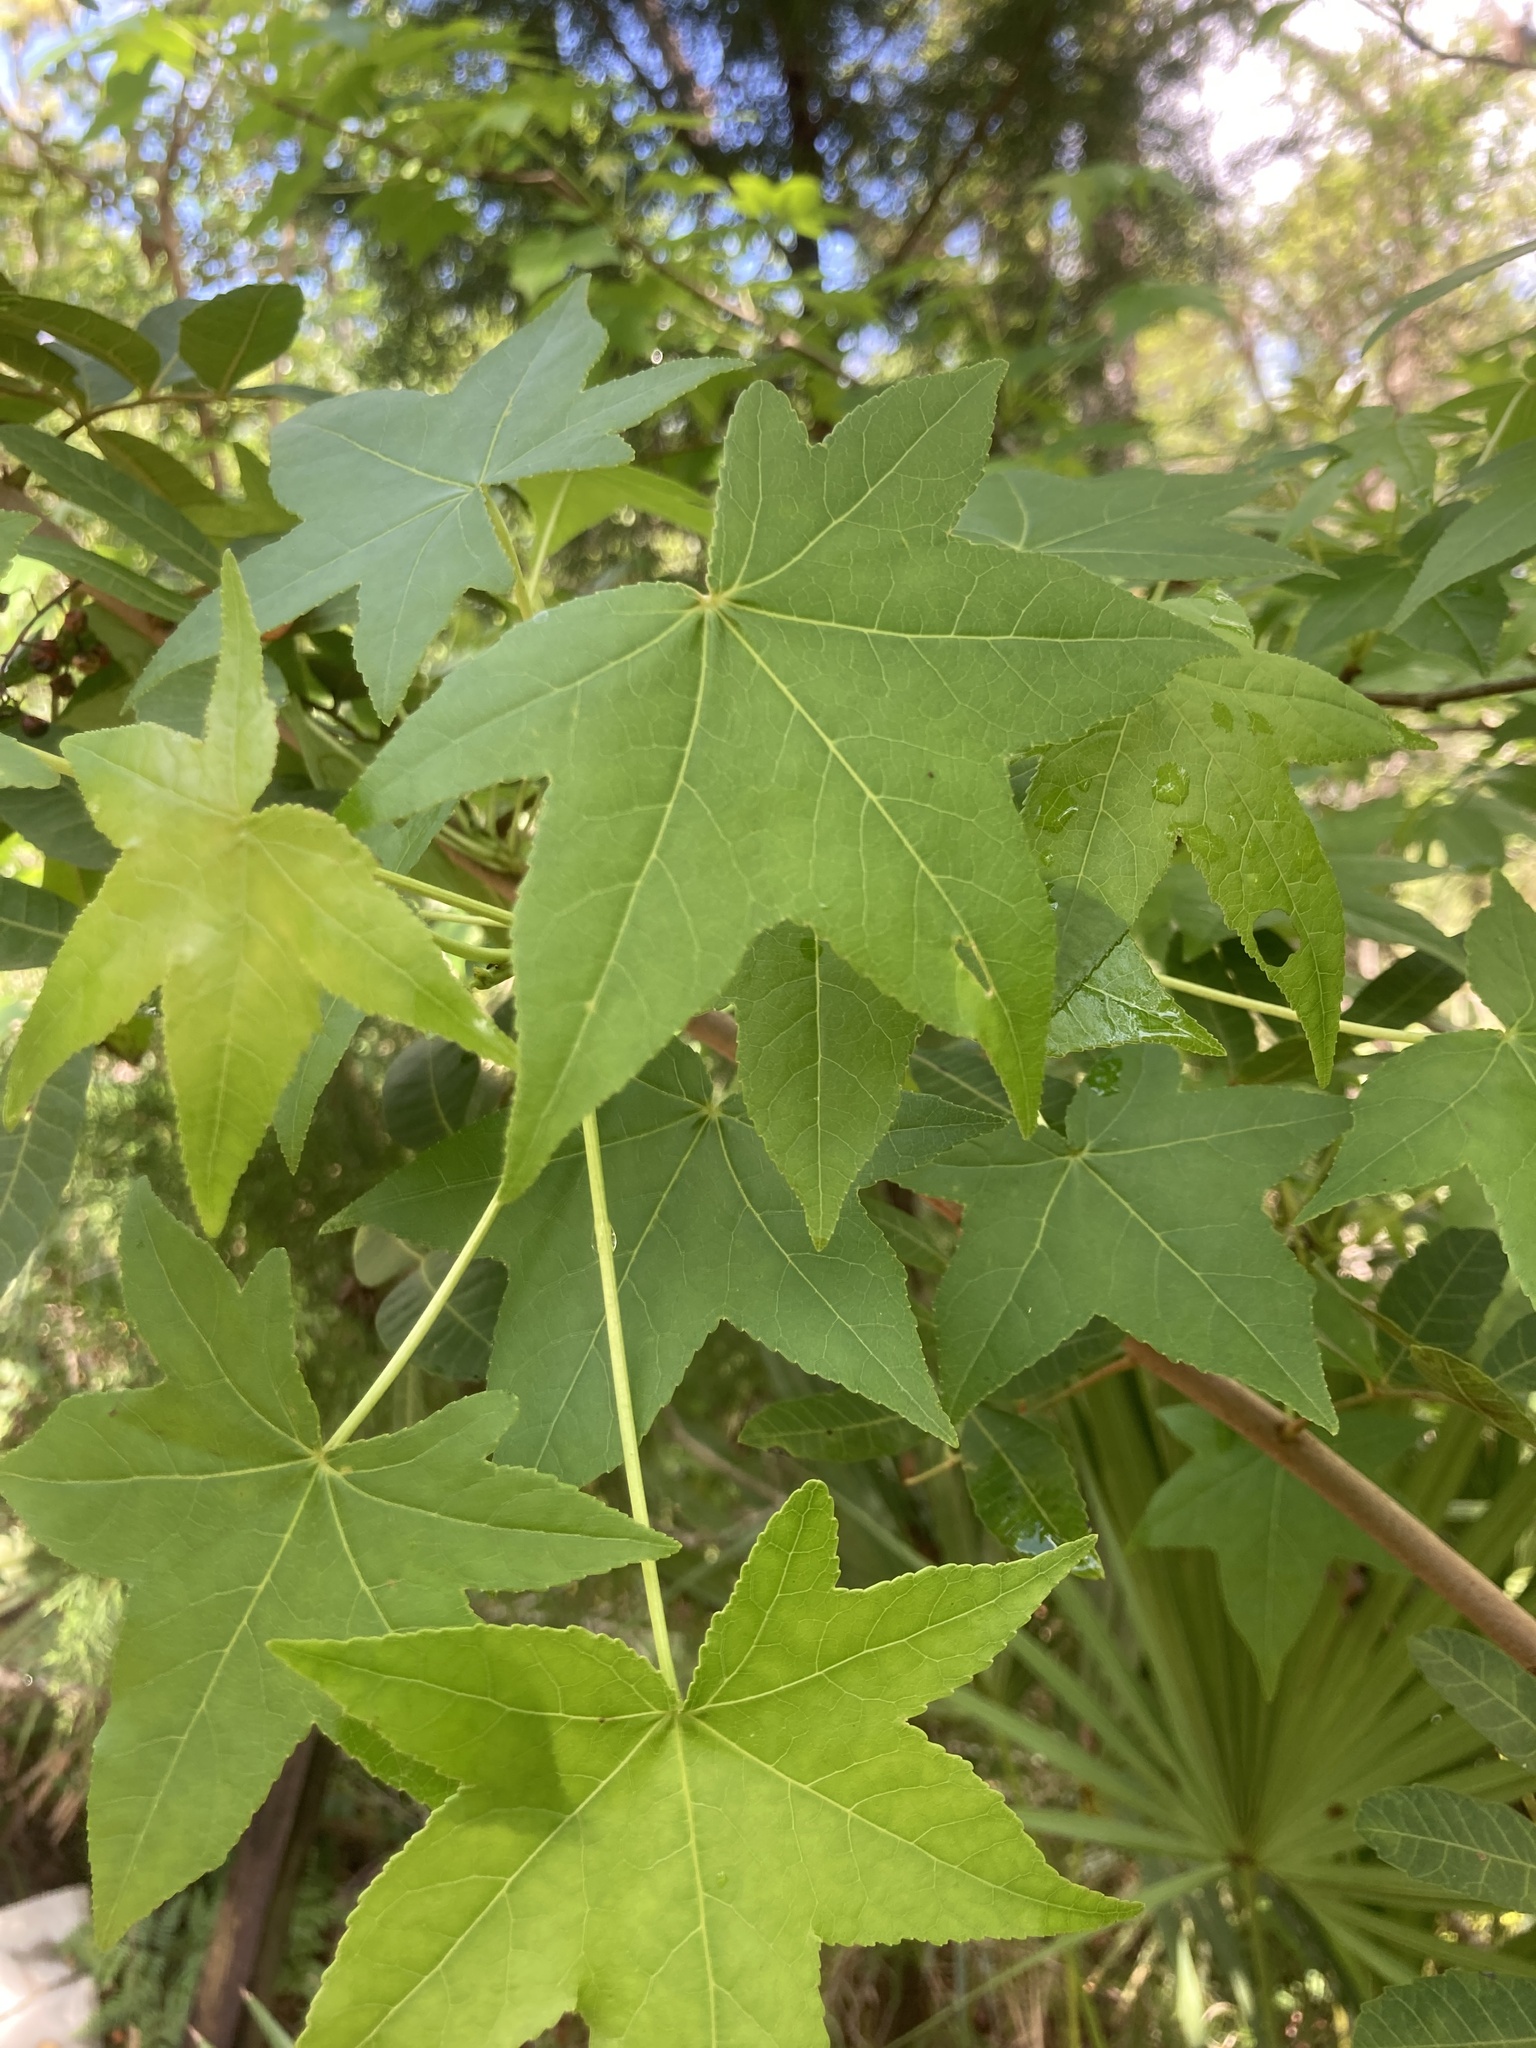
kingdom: Plantae
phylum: Tracheophyta
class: Magnoliopsida
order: Saxifragales
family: Altingiaceae
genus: Liquidambar
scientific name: Liquidambar styraciflua
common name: Sweet gum
